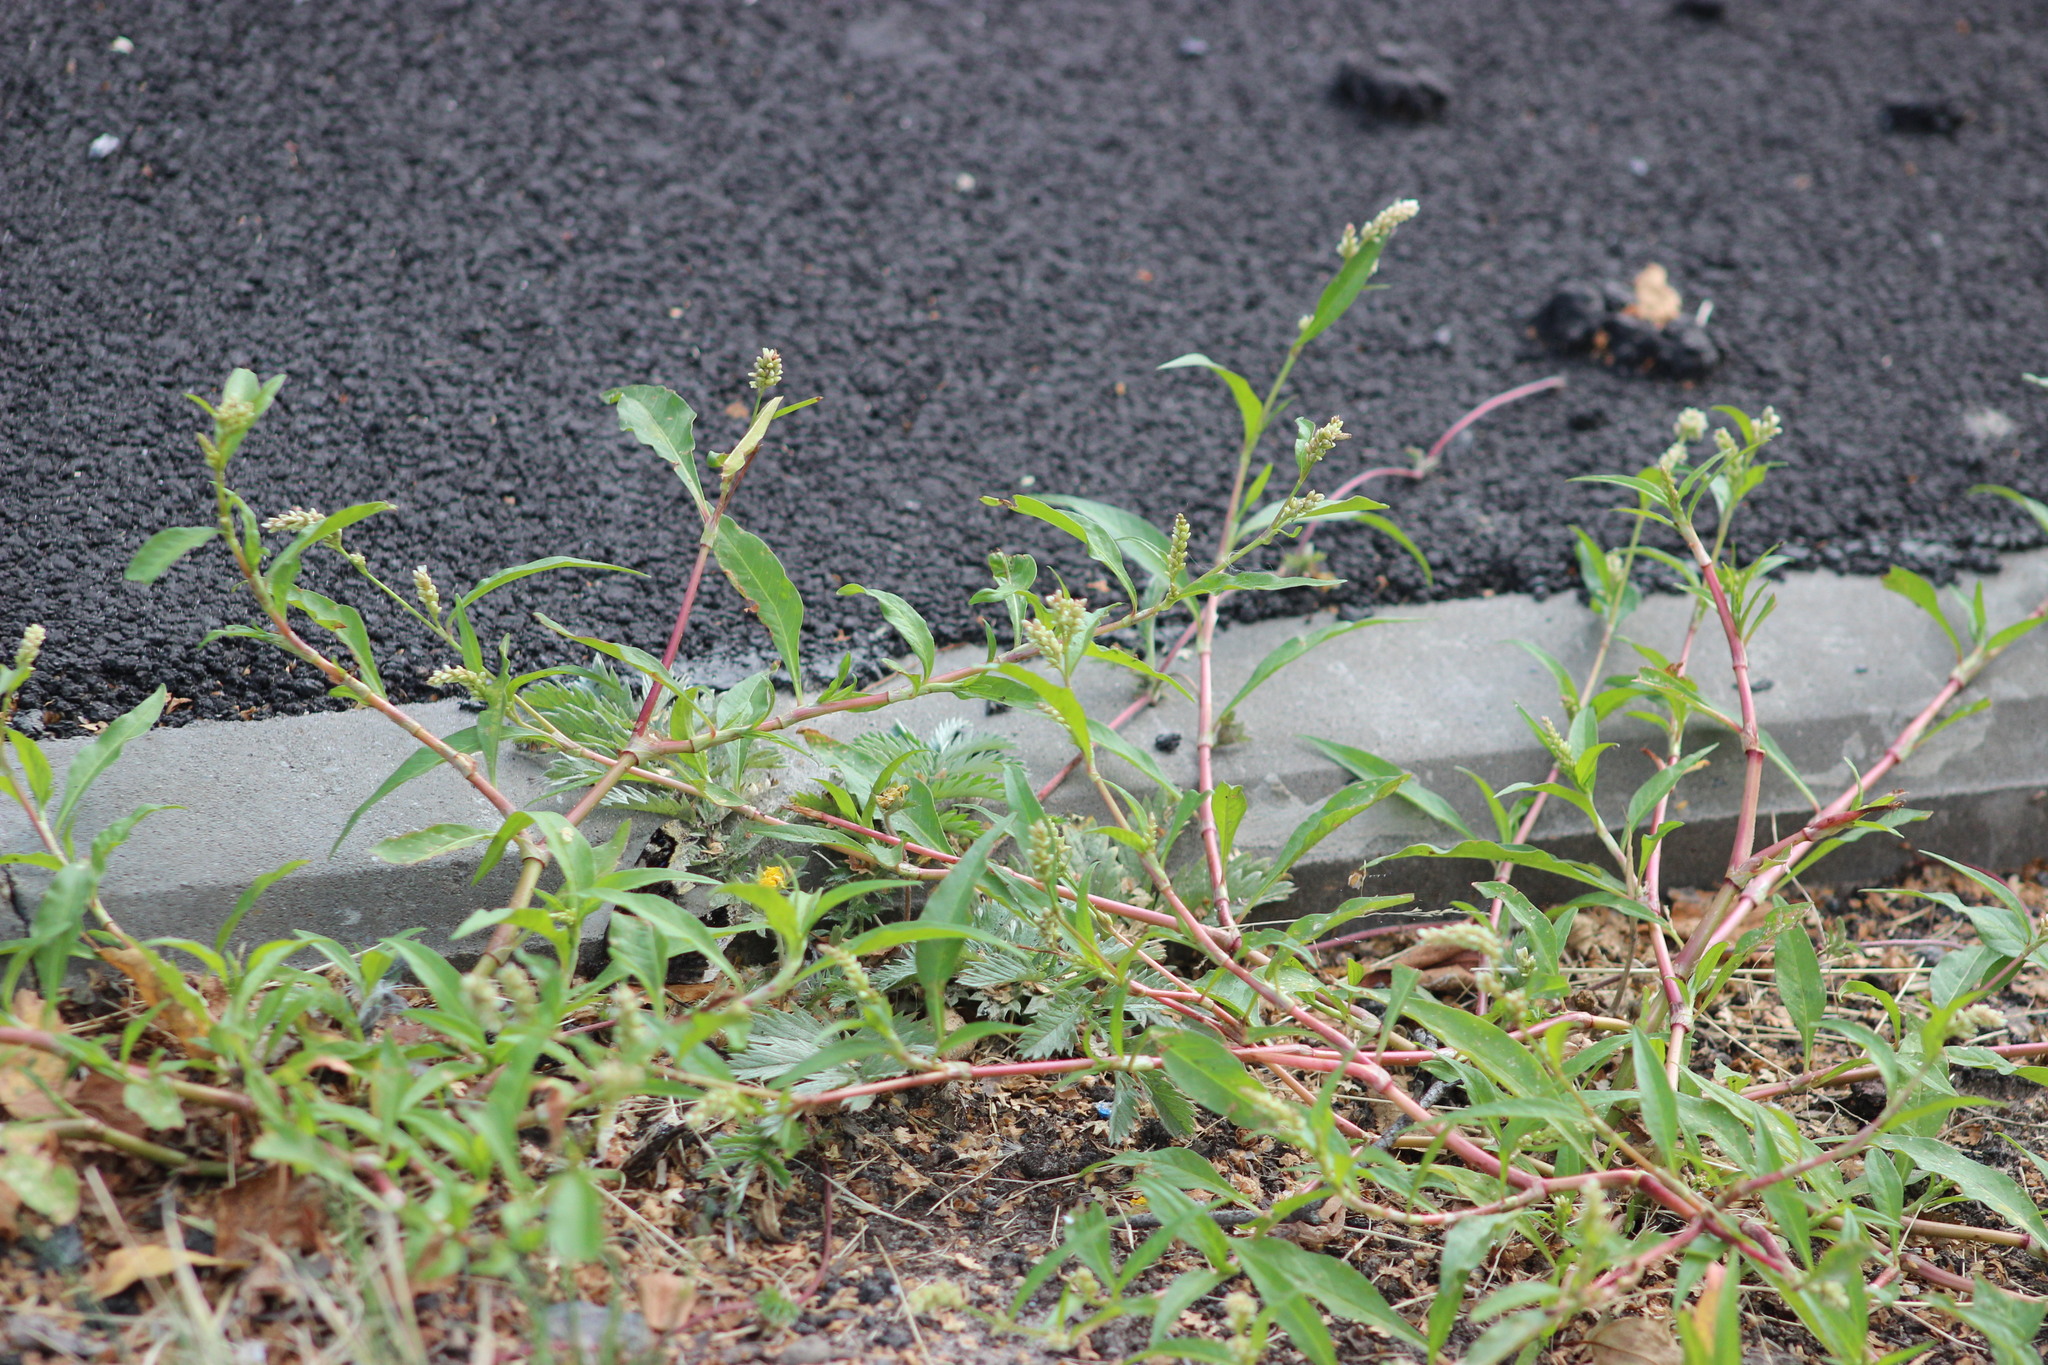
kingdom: Plantae
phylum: Tracheophyta
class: Magnoliopsida
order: Caryophyllales
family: Polygonaceae
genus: Persicaria
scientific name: Persicaria maculosa
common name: Redshank
